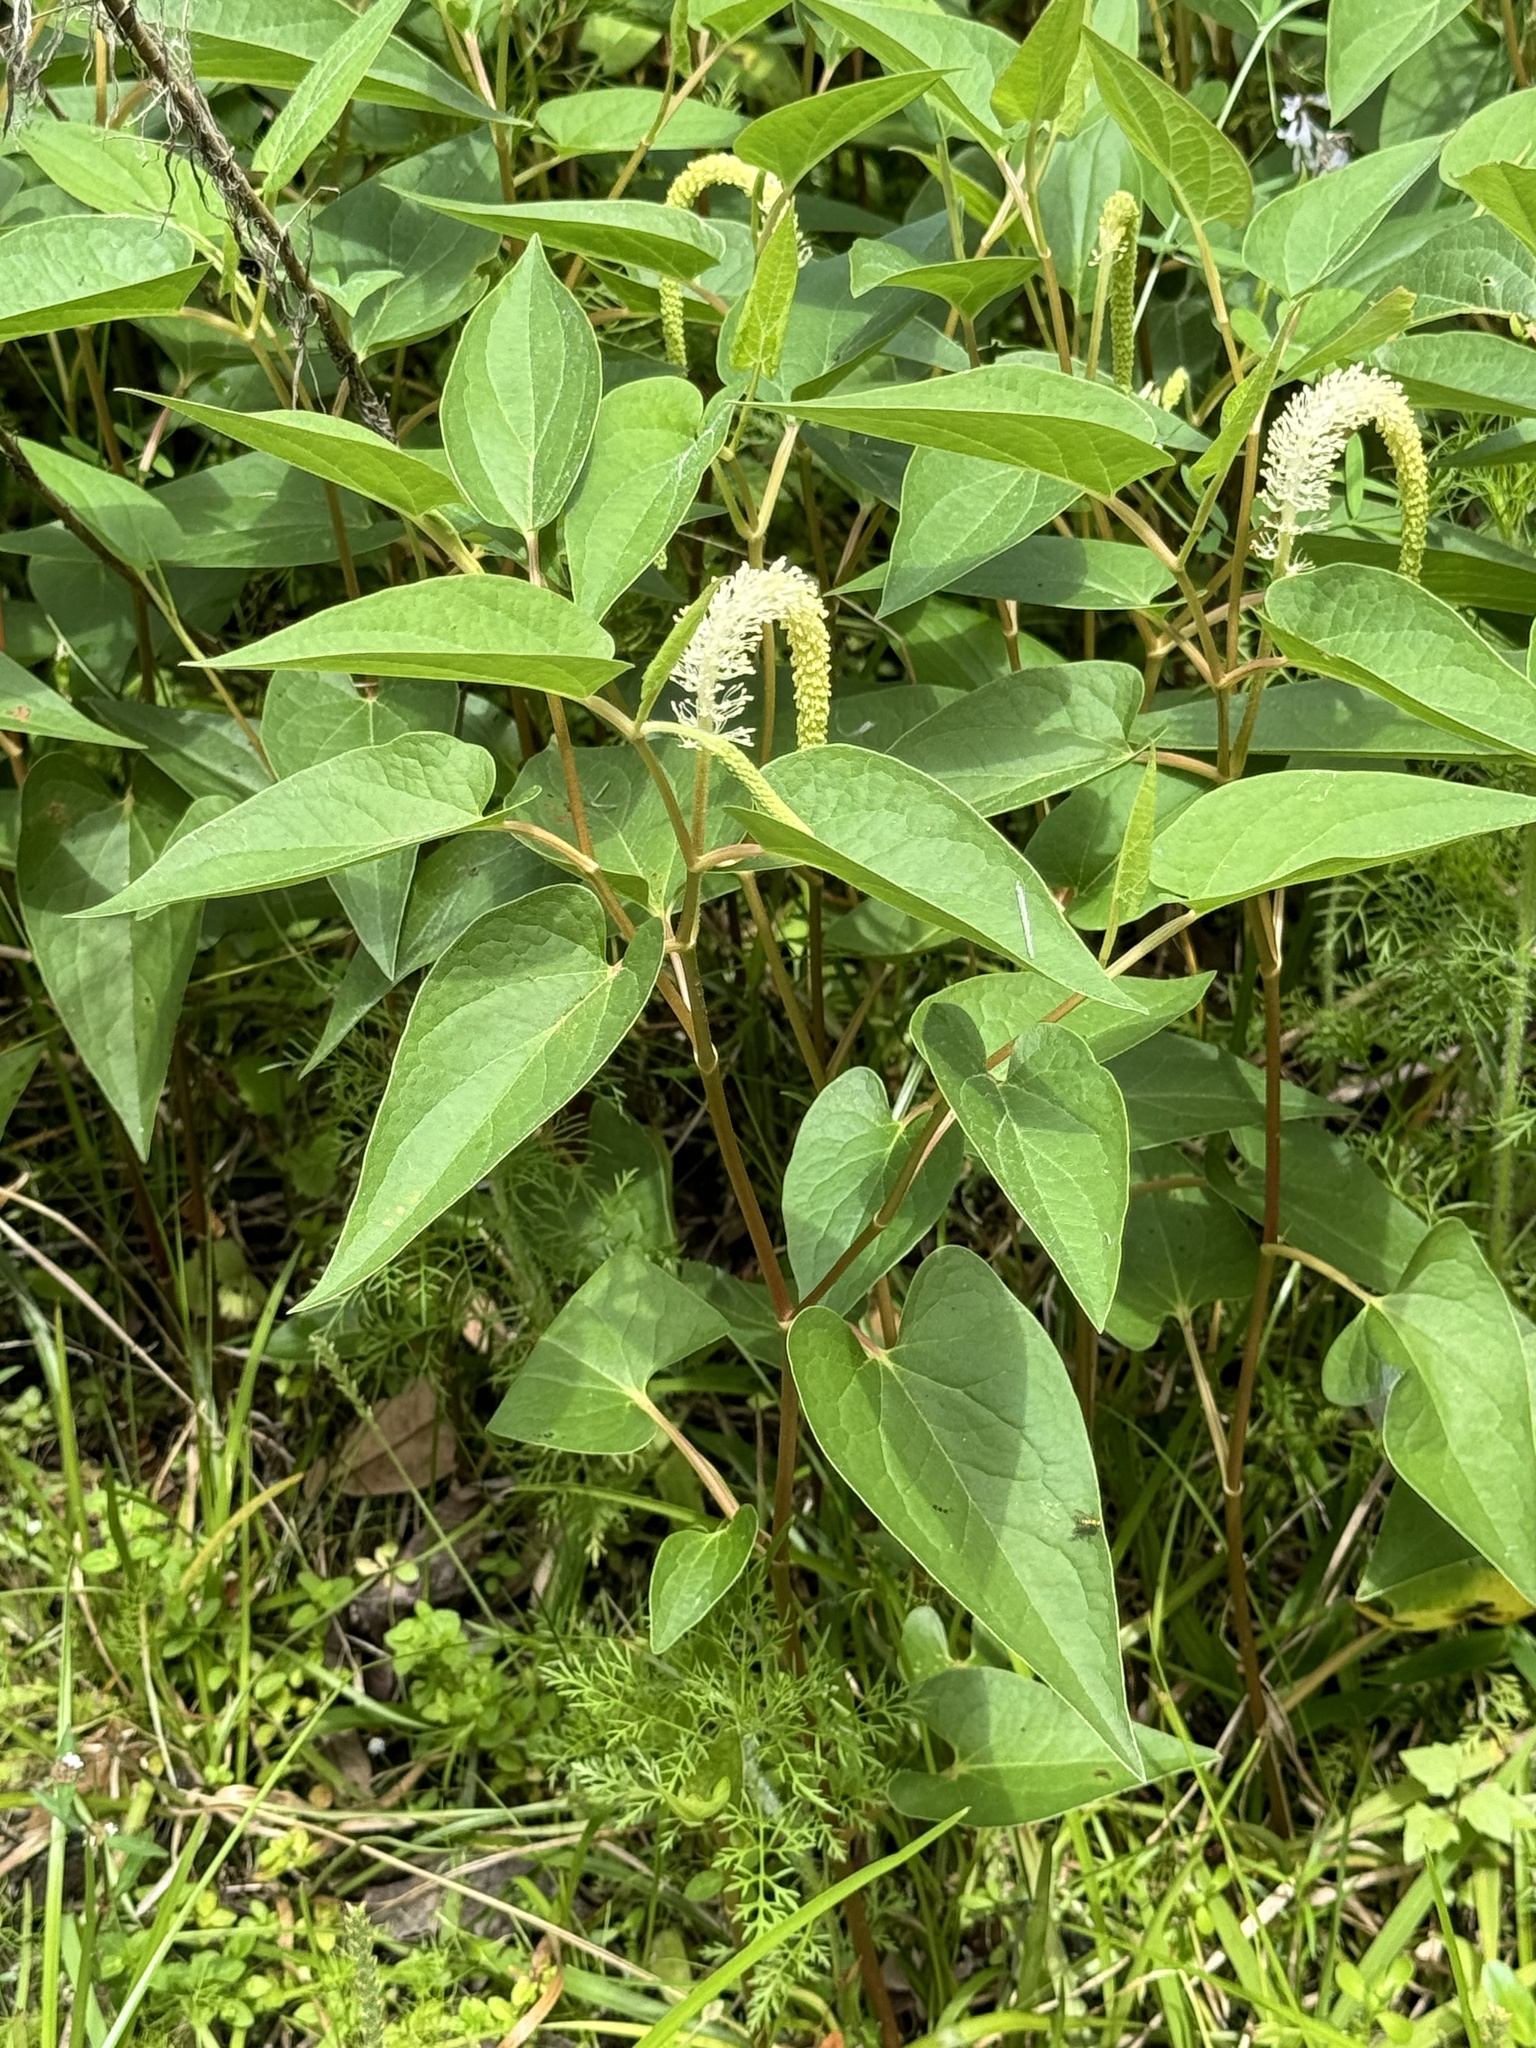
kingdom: Plantae
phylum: Tracheophyta
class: Magnoliopsida
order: Piperales
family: Saururaceae
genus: Saururus
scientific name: Saururus cernuus
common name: Lizard's-tail
